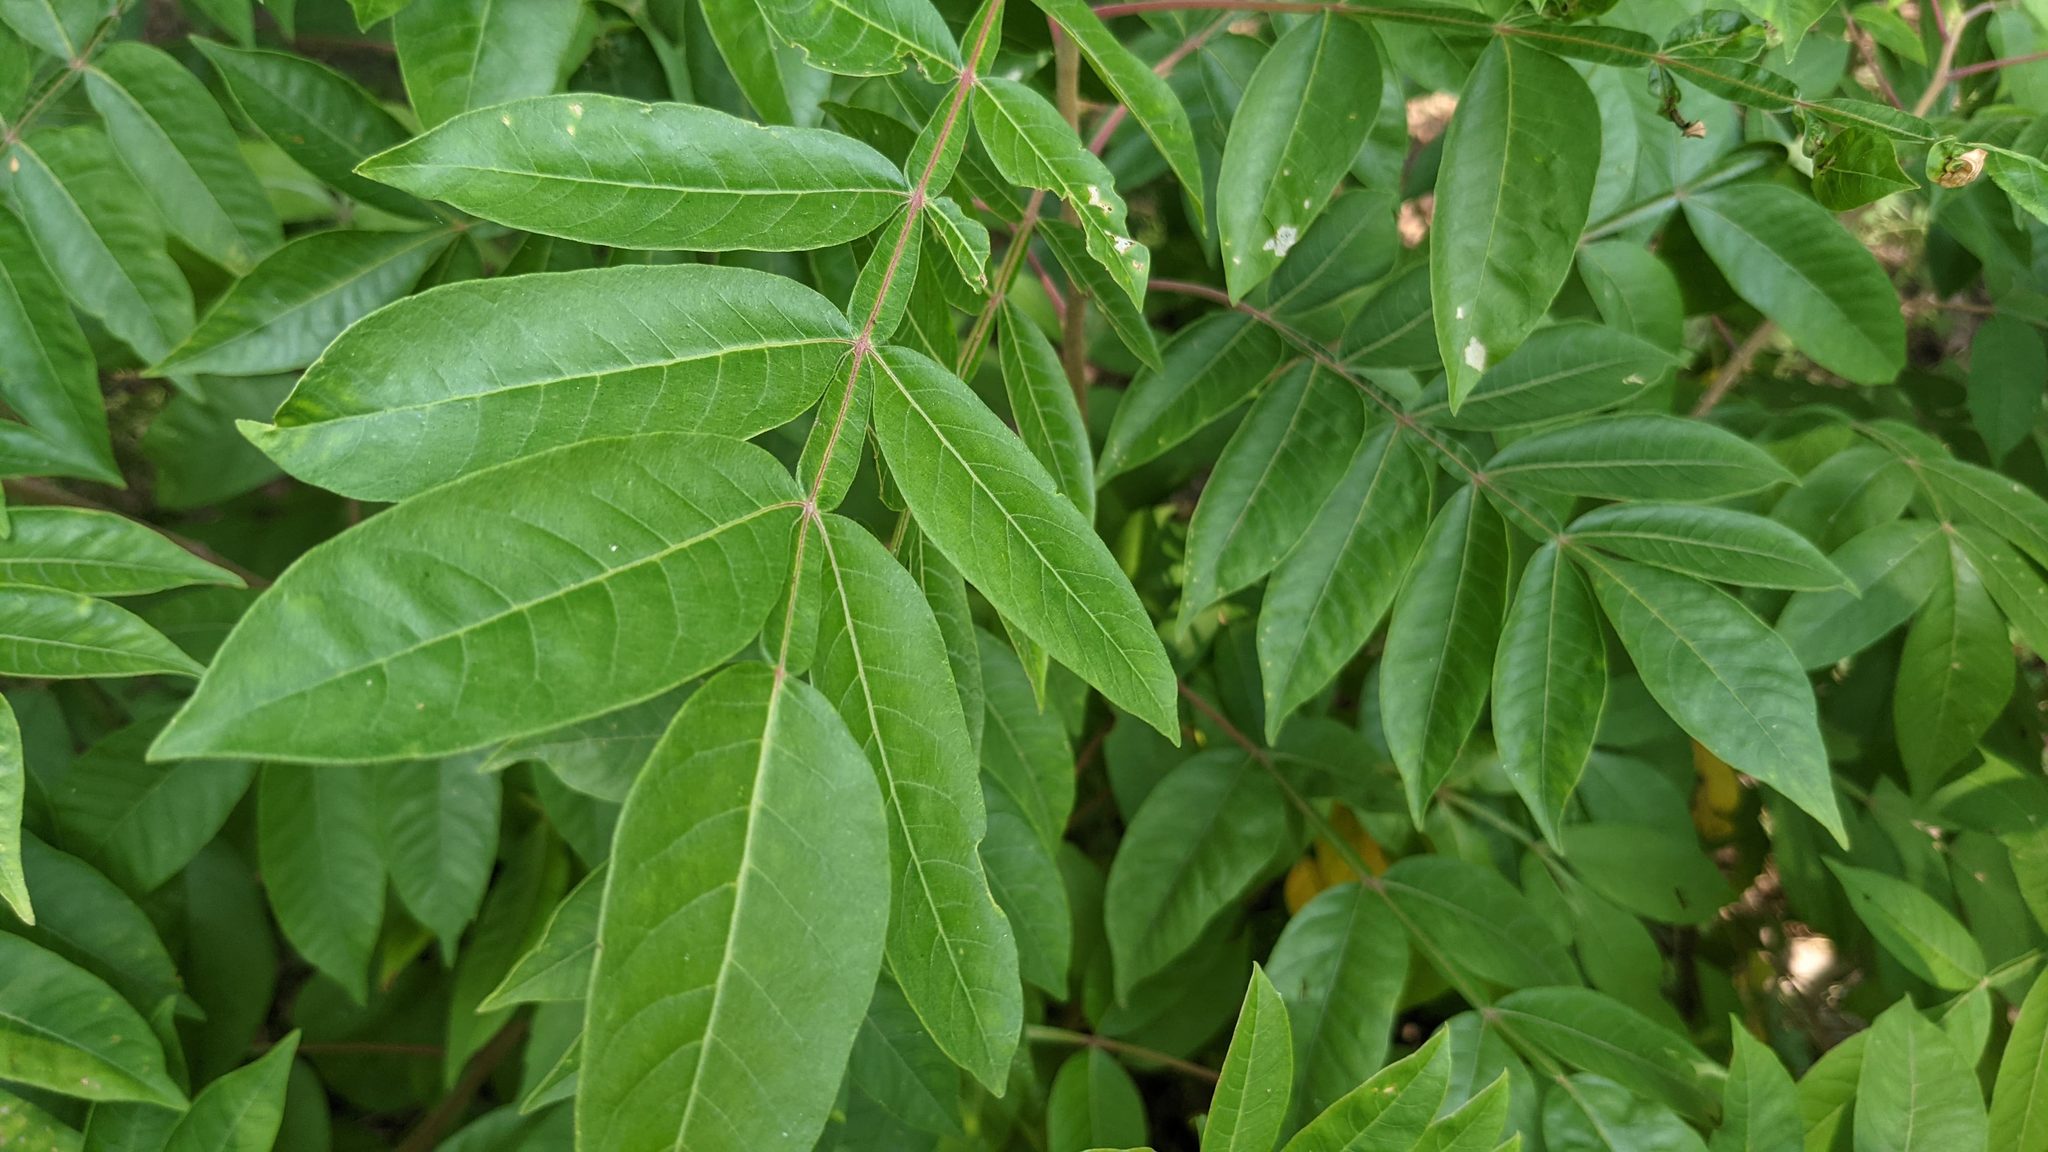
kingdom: Plantae
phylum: Tracheophyta
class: Magnoliopsida
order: Sapindales
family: Anacardiaceae
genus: Rhus
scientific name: Rhus copallina
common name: Shining sumac
